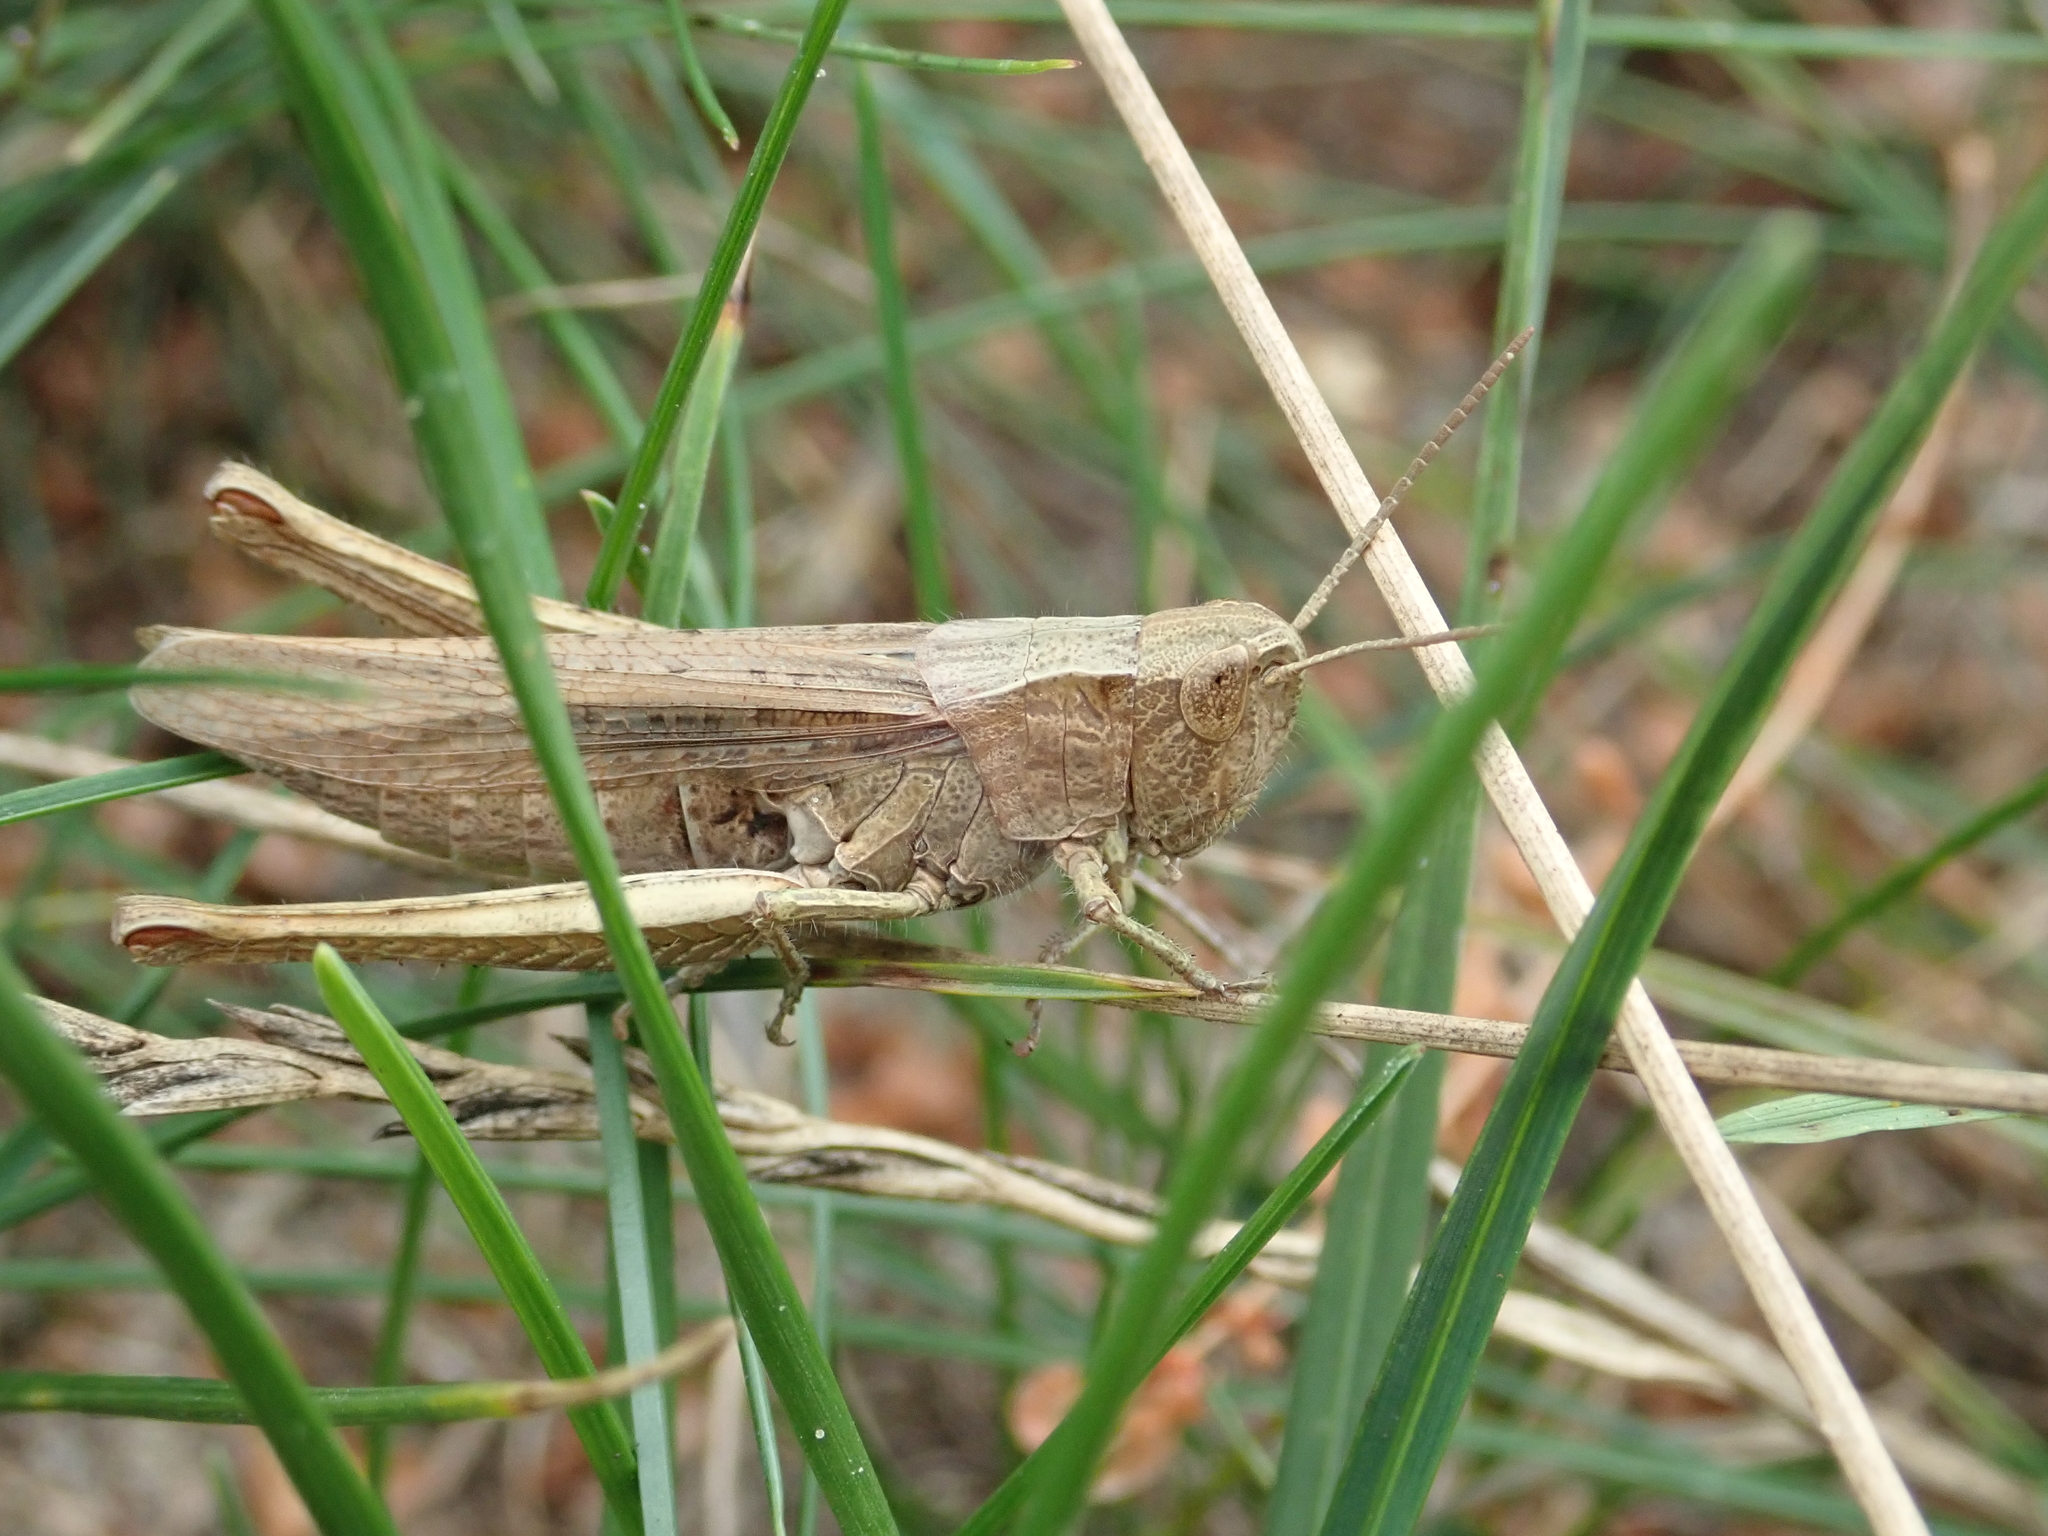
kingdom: Animalia
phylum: Arthropoda
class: Insecta
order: Orthoptera
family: Acrididae
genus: Chorthippus
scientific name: Chorthippus dorsatus
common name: Steppe grasshopper
